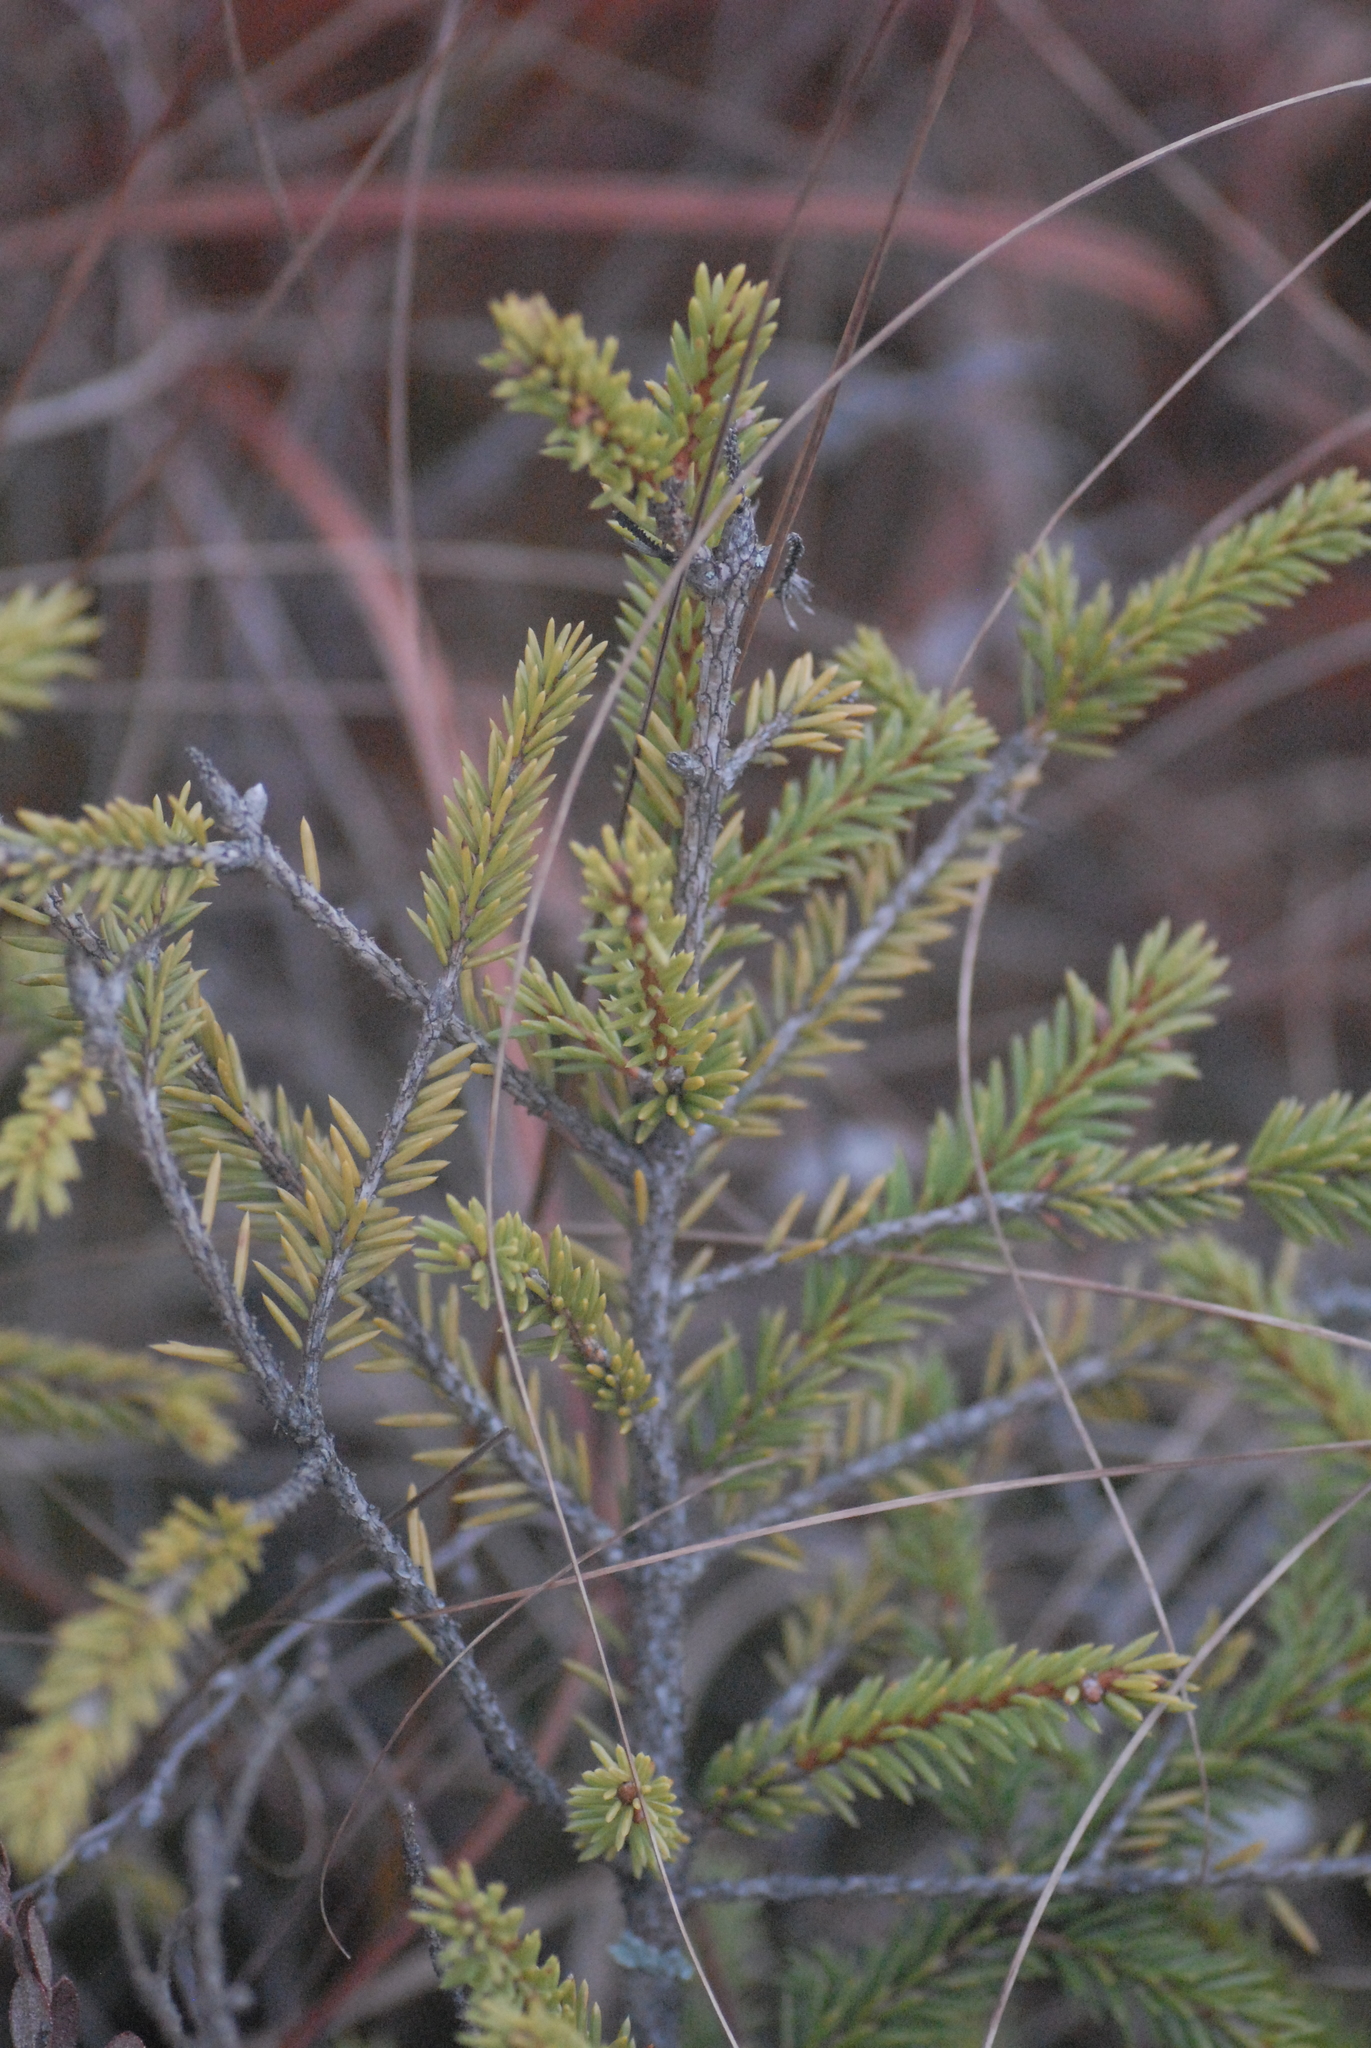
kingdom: Plantae
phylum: Tracheophyta
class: Pinopsida
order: Pinales
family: Pinaceae
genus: Picea
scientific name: Picea abies
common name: Norway spruce
